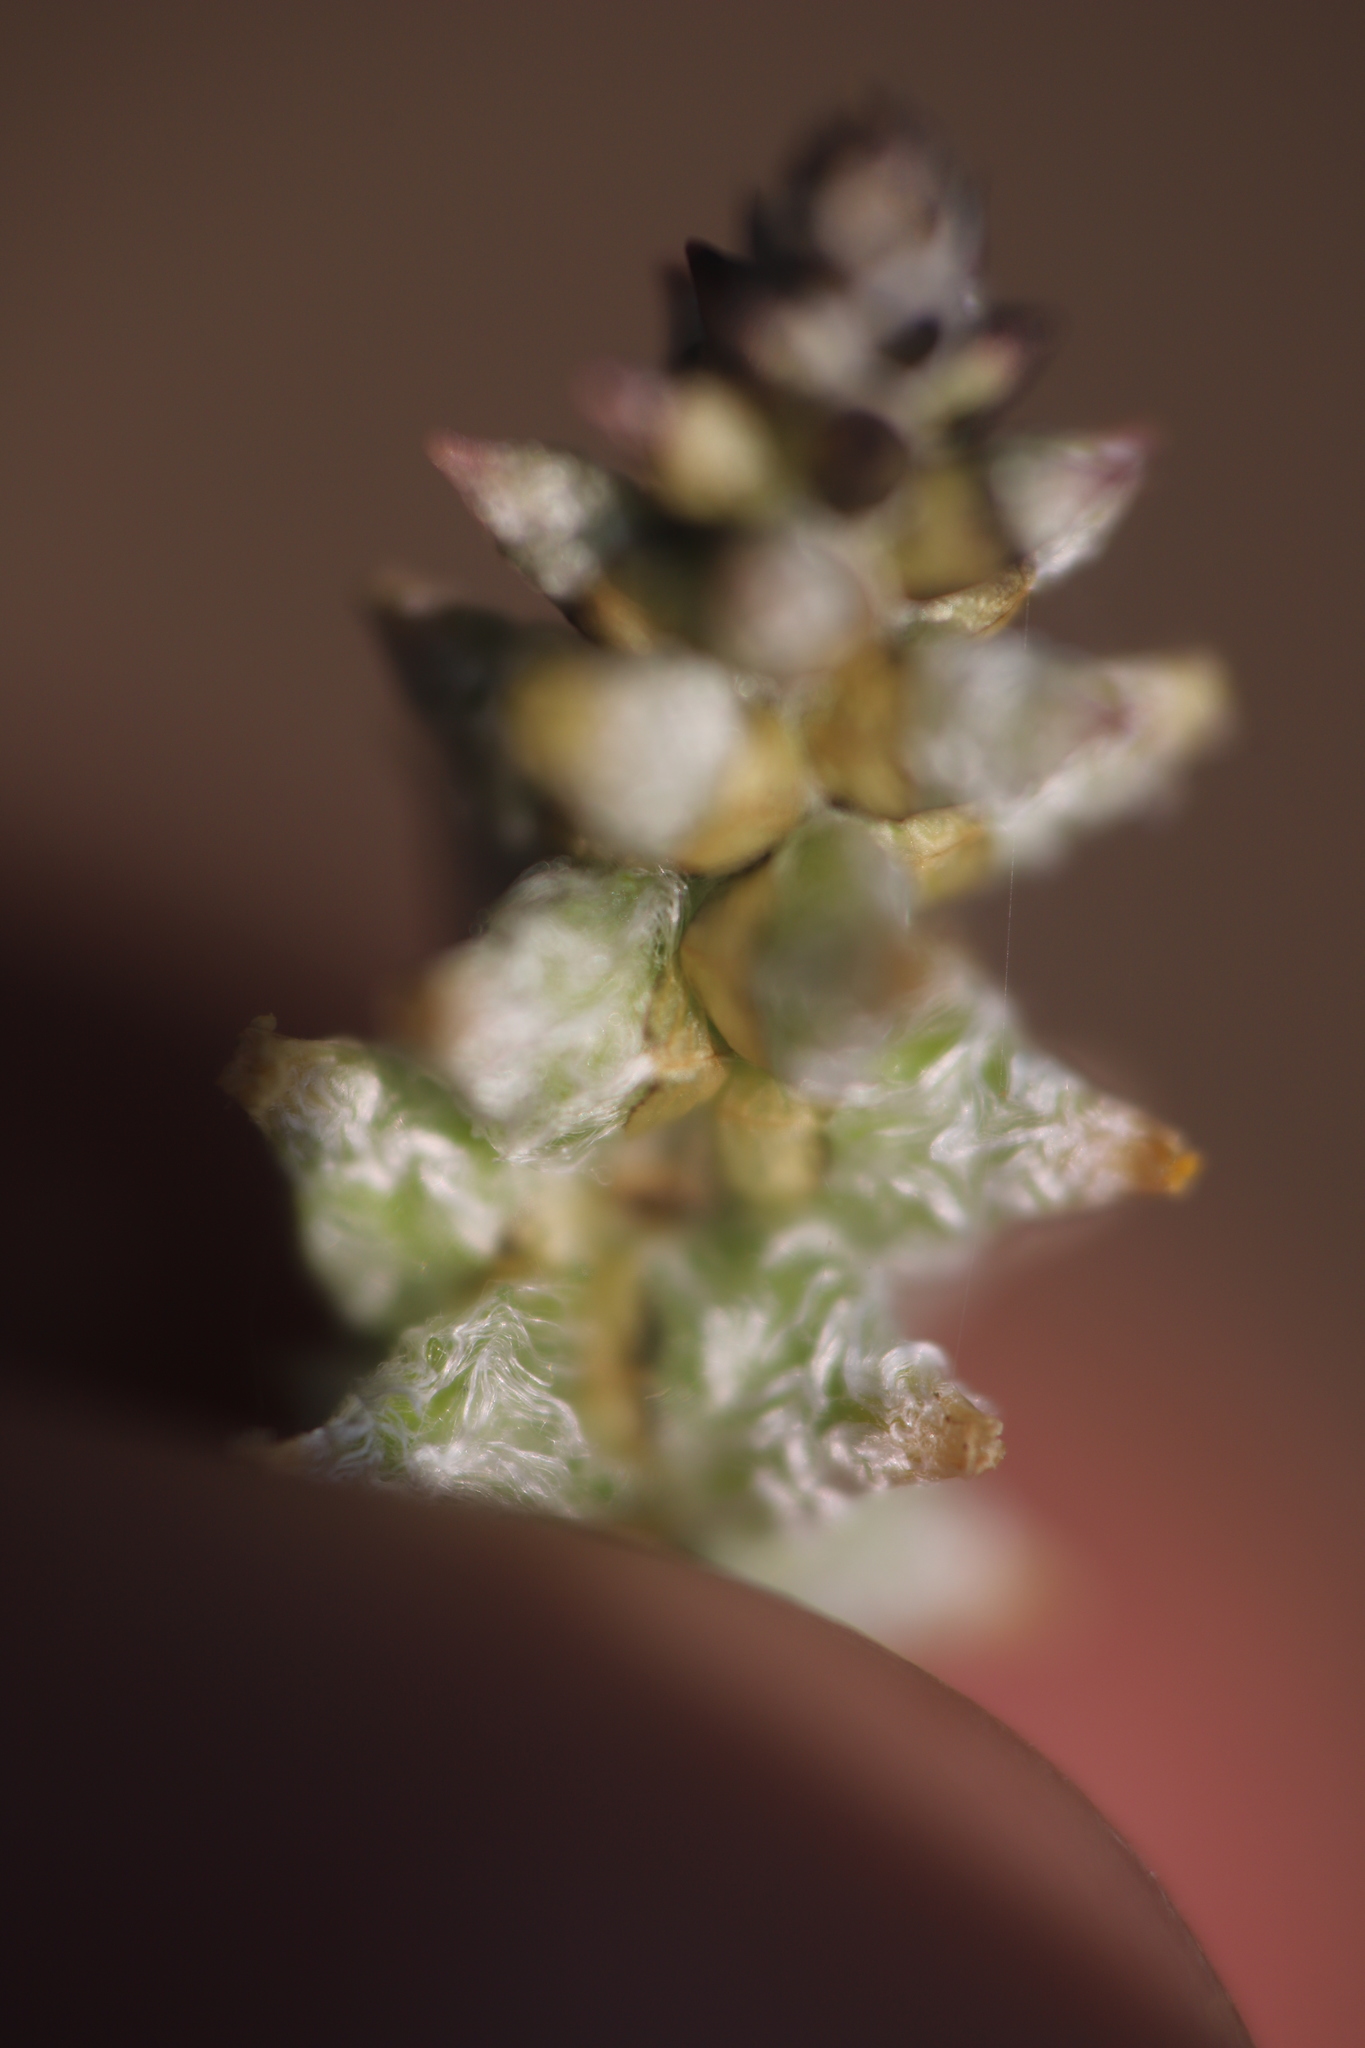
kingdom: Plantae
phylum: Tracheophyta
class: Magnoliopsida
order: Caryophyllales
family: Amaranthaceae
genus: Froelichia
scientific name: Froelichia gracilis
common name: Slender cottonweed
